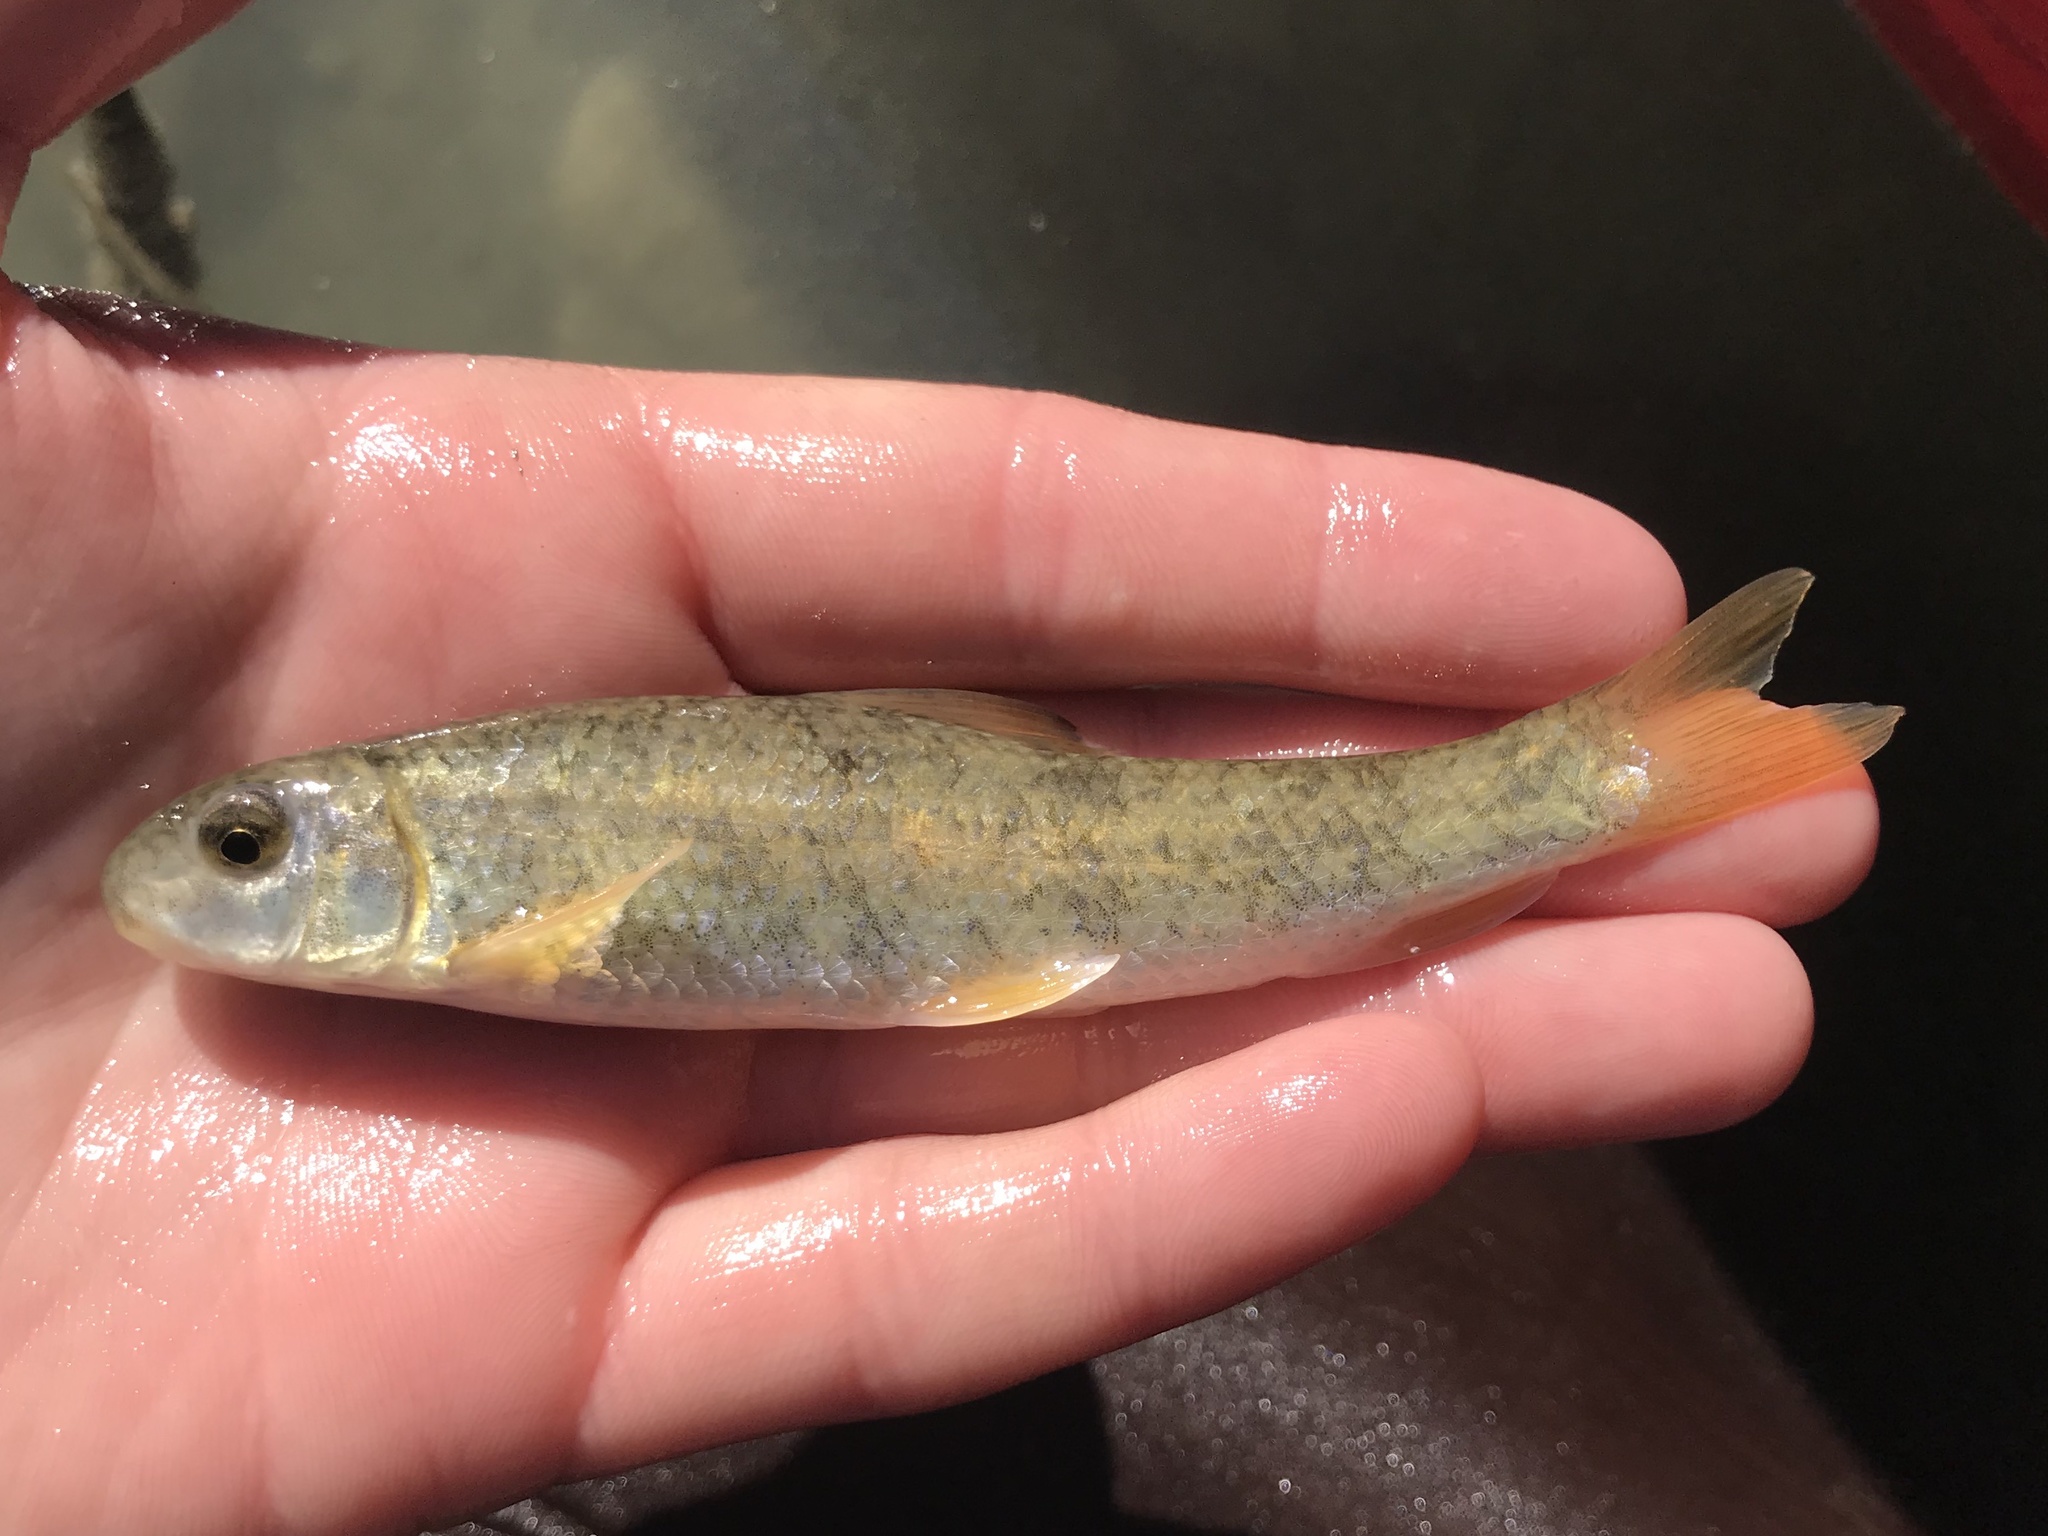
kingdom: Animalia
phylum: Chordata
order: Cypriniformes
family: Catostomidae
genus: Moxostoma
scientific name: Moxostoma congestum
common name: Gray redhorse
